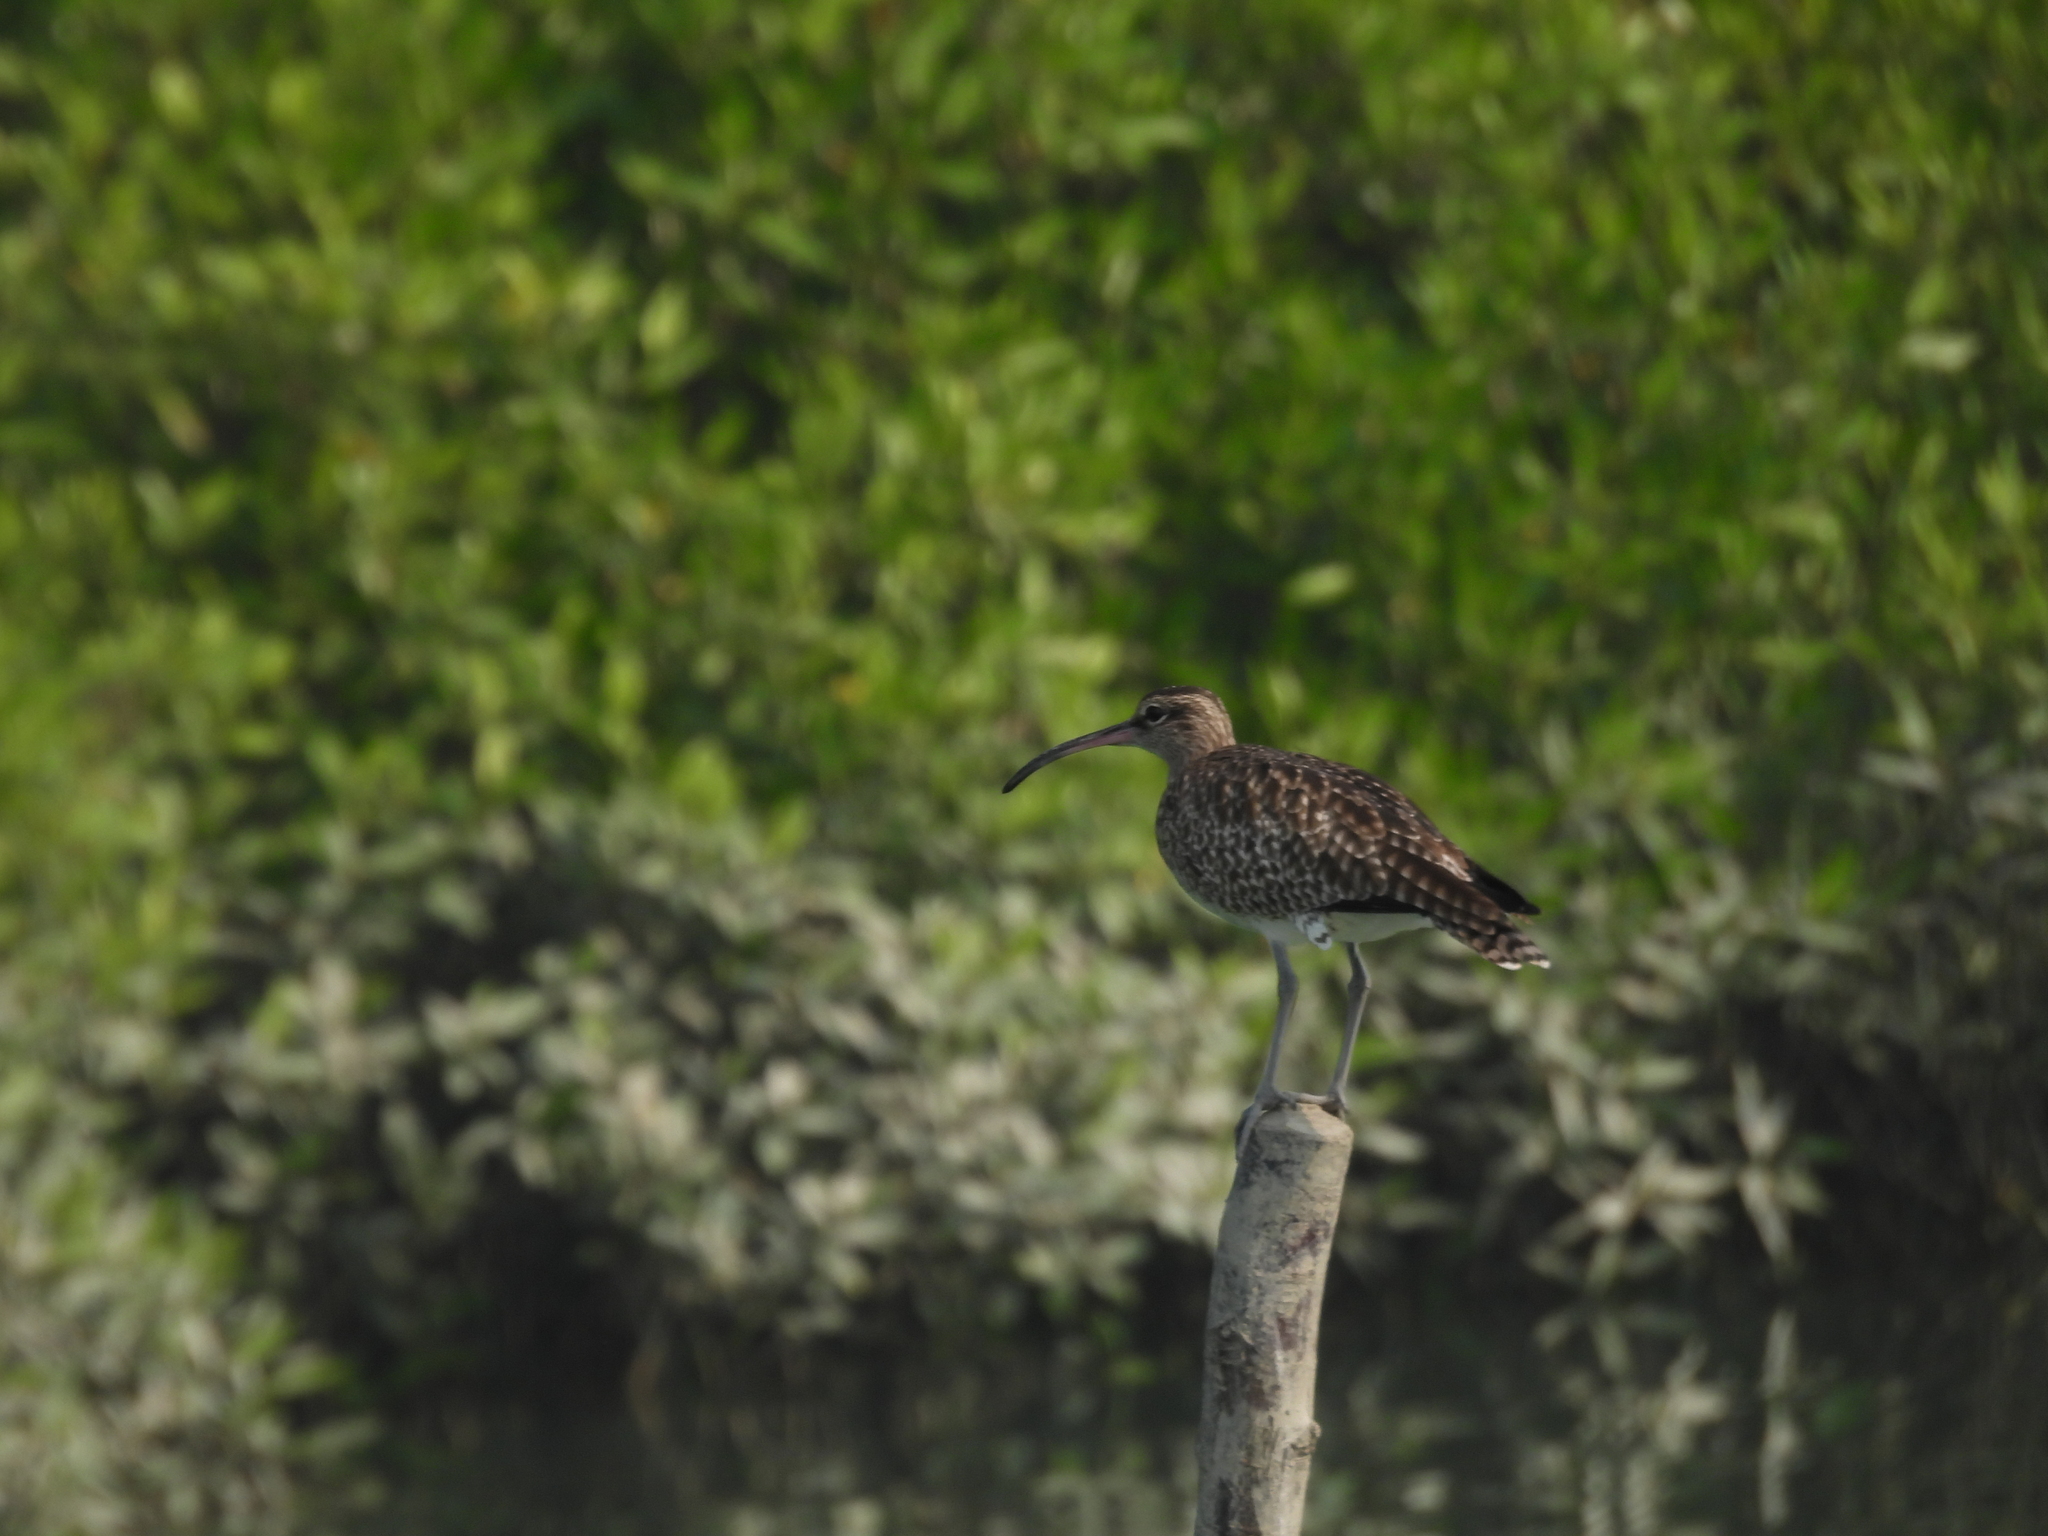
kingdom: Animalia
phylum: Chordata
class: Aves
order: Charadriiformes
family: Scolopacidae
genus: Numenius
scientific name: Numenius phaeopus
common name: Whimbrel
